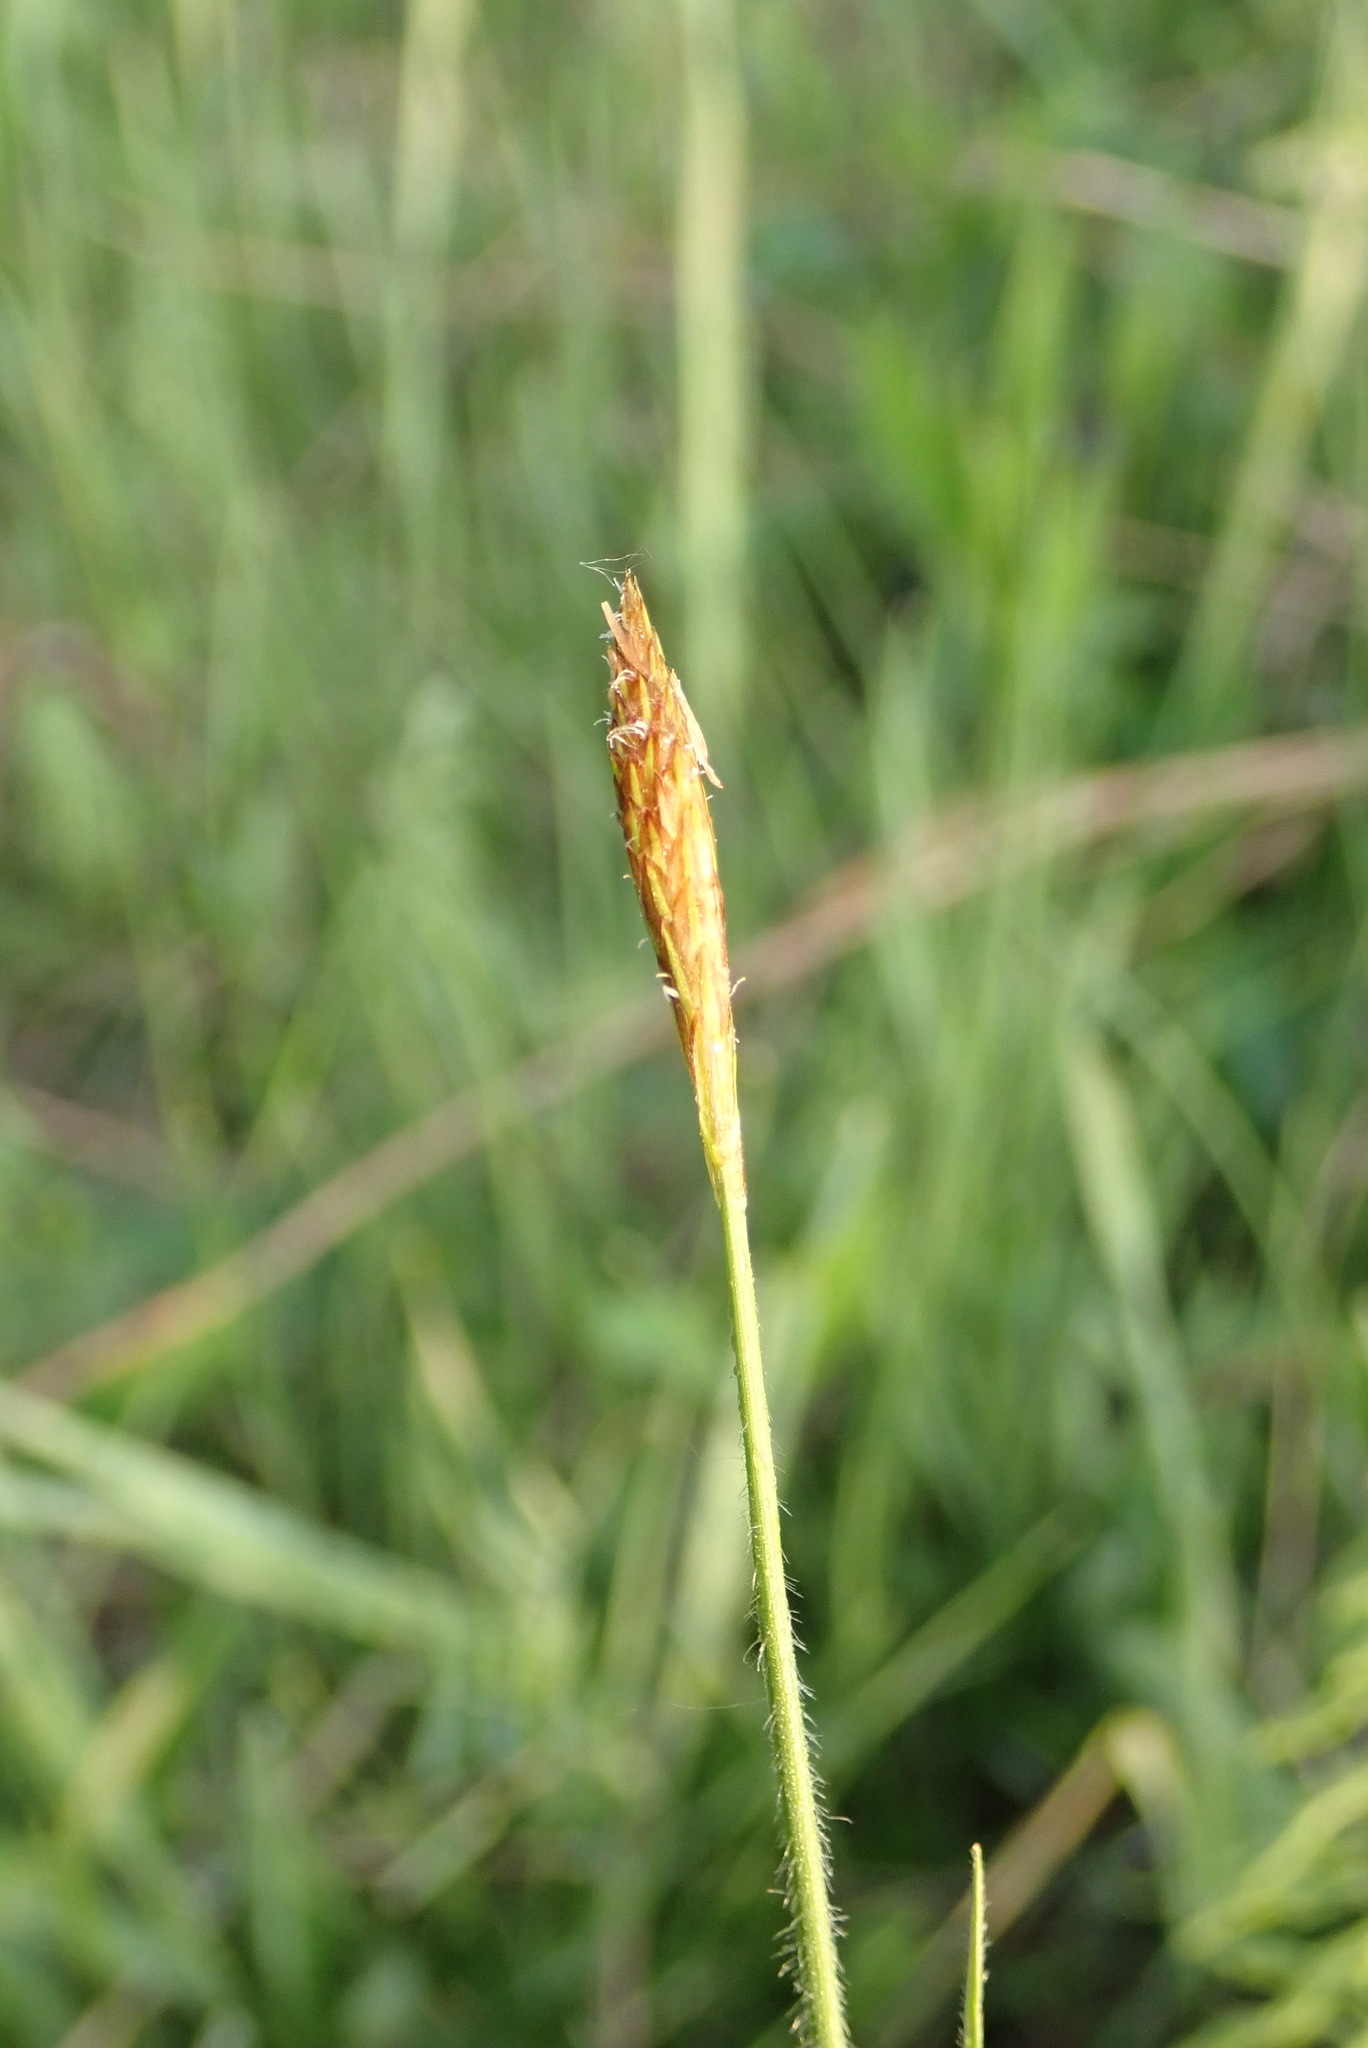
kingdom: Plantae
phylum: Tracheophyta
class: Liliopsida
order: Poales
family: Cyperaceae
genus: Carex
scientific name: Carex castanea
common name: Chestnut sedge
